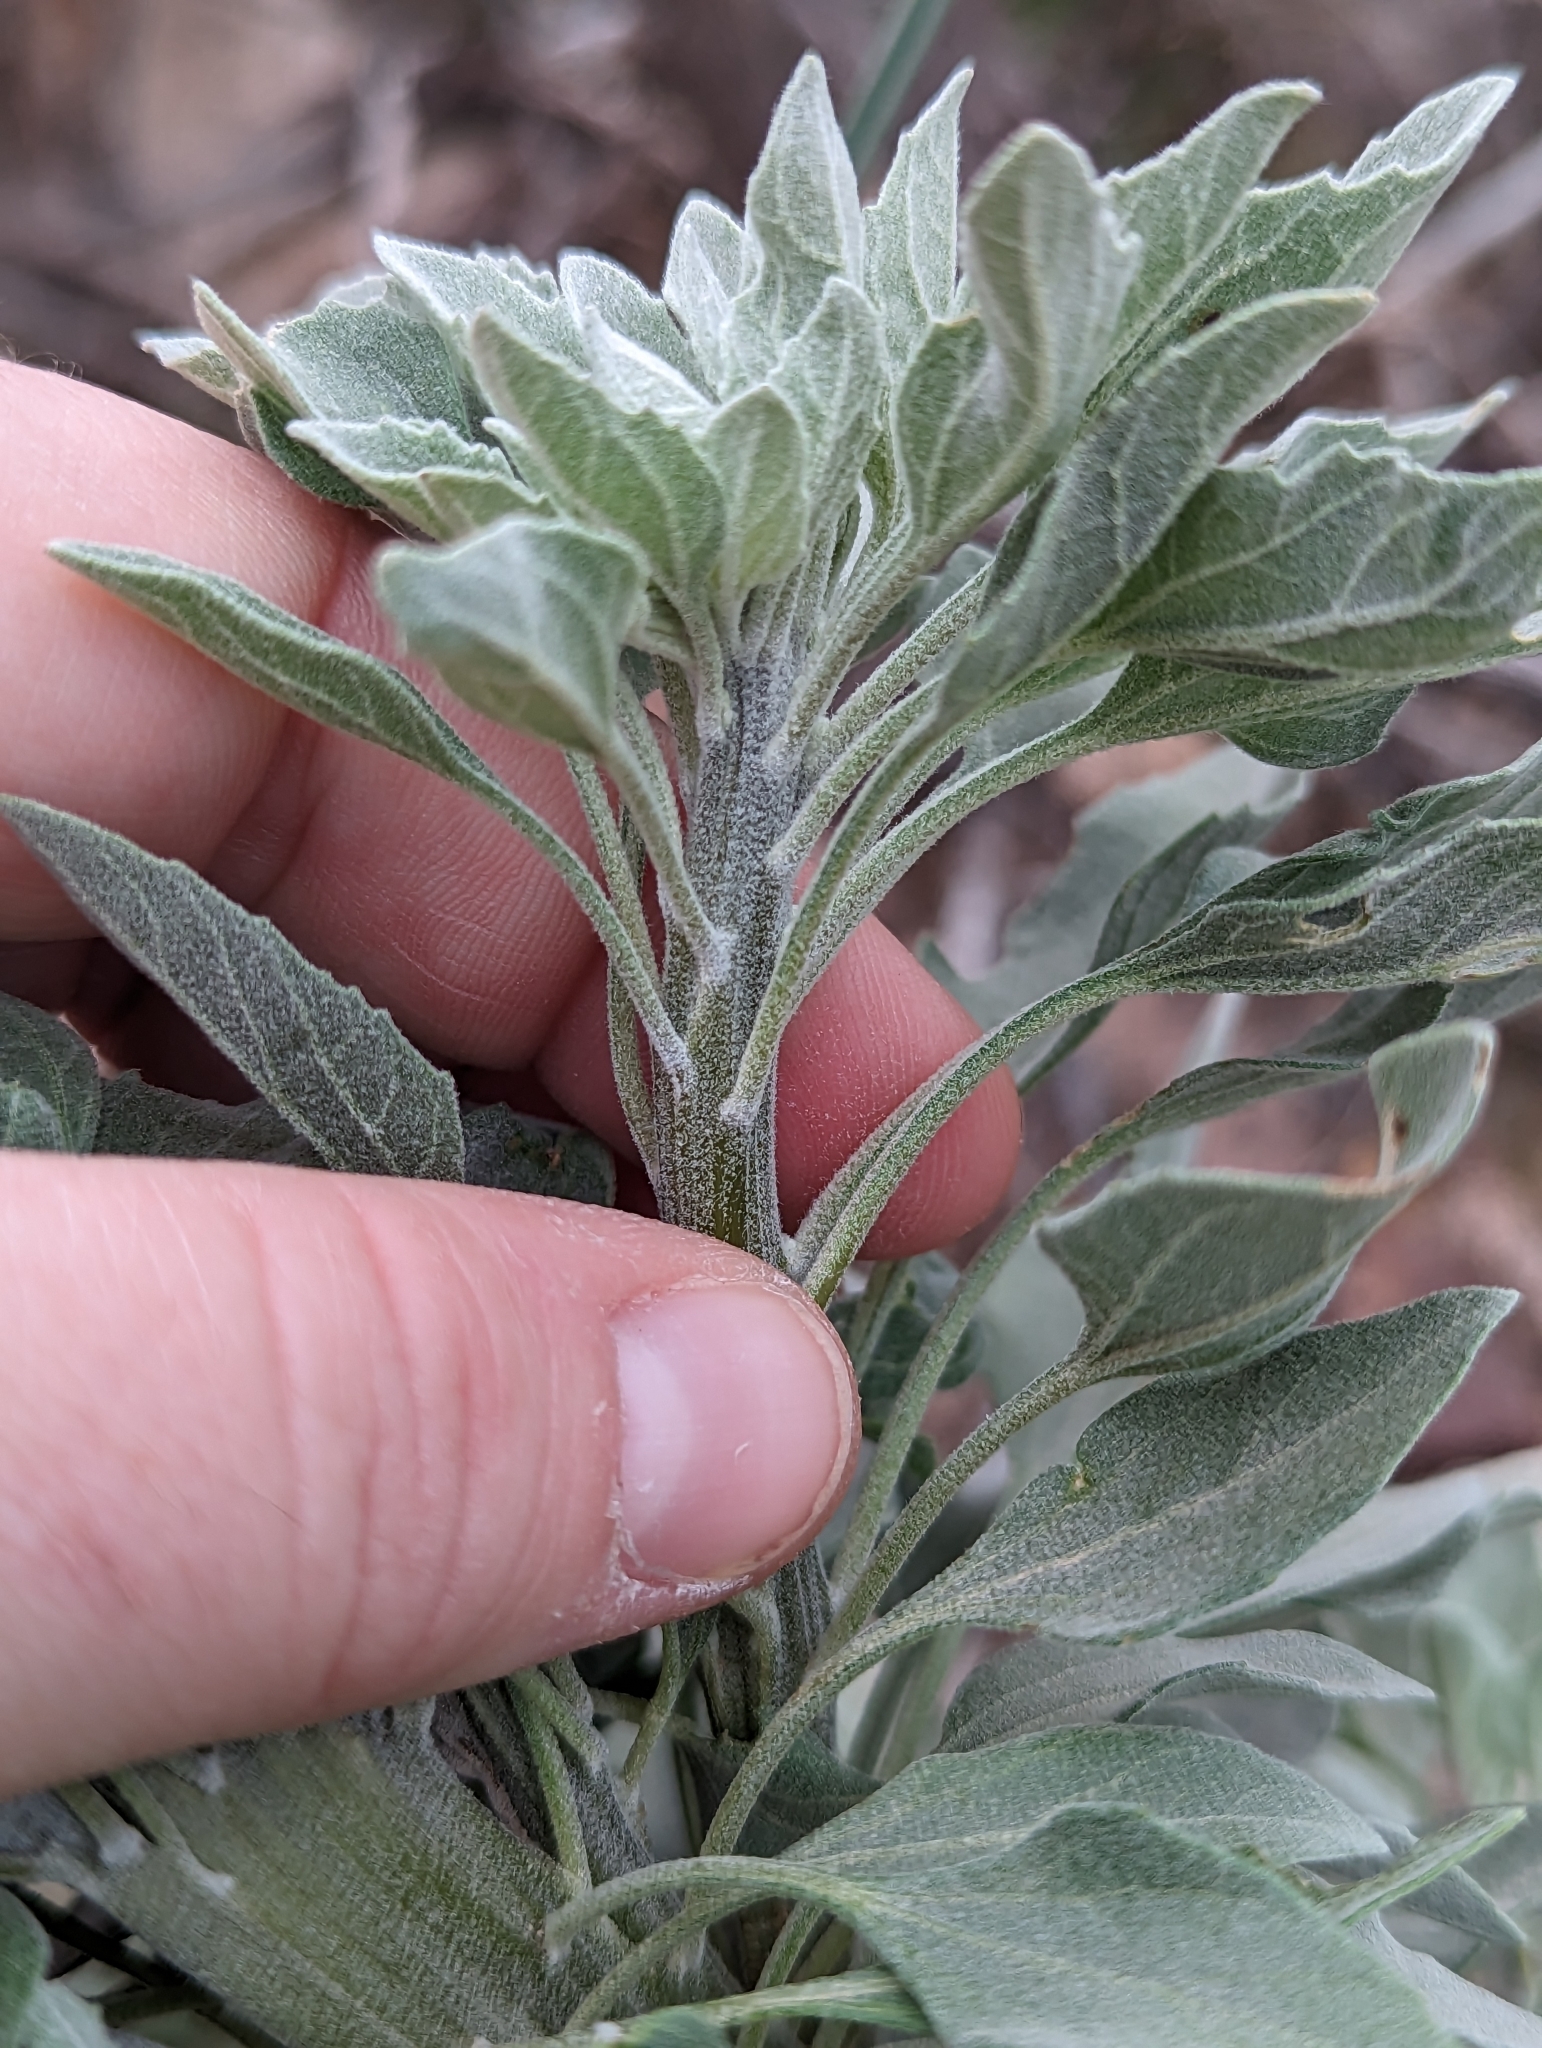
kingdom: Plantae
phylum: Tracheophyta
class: Magnoliopsida
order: Asterales
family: Asteraceae
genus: Encelia
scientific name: Encelia farinosa
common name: Brittlebush
